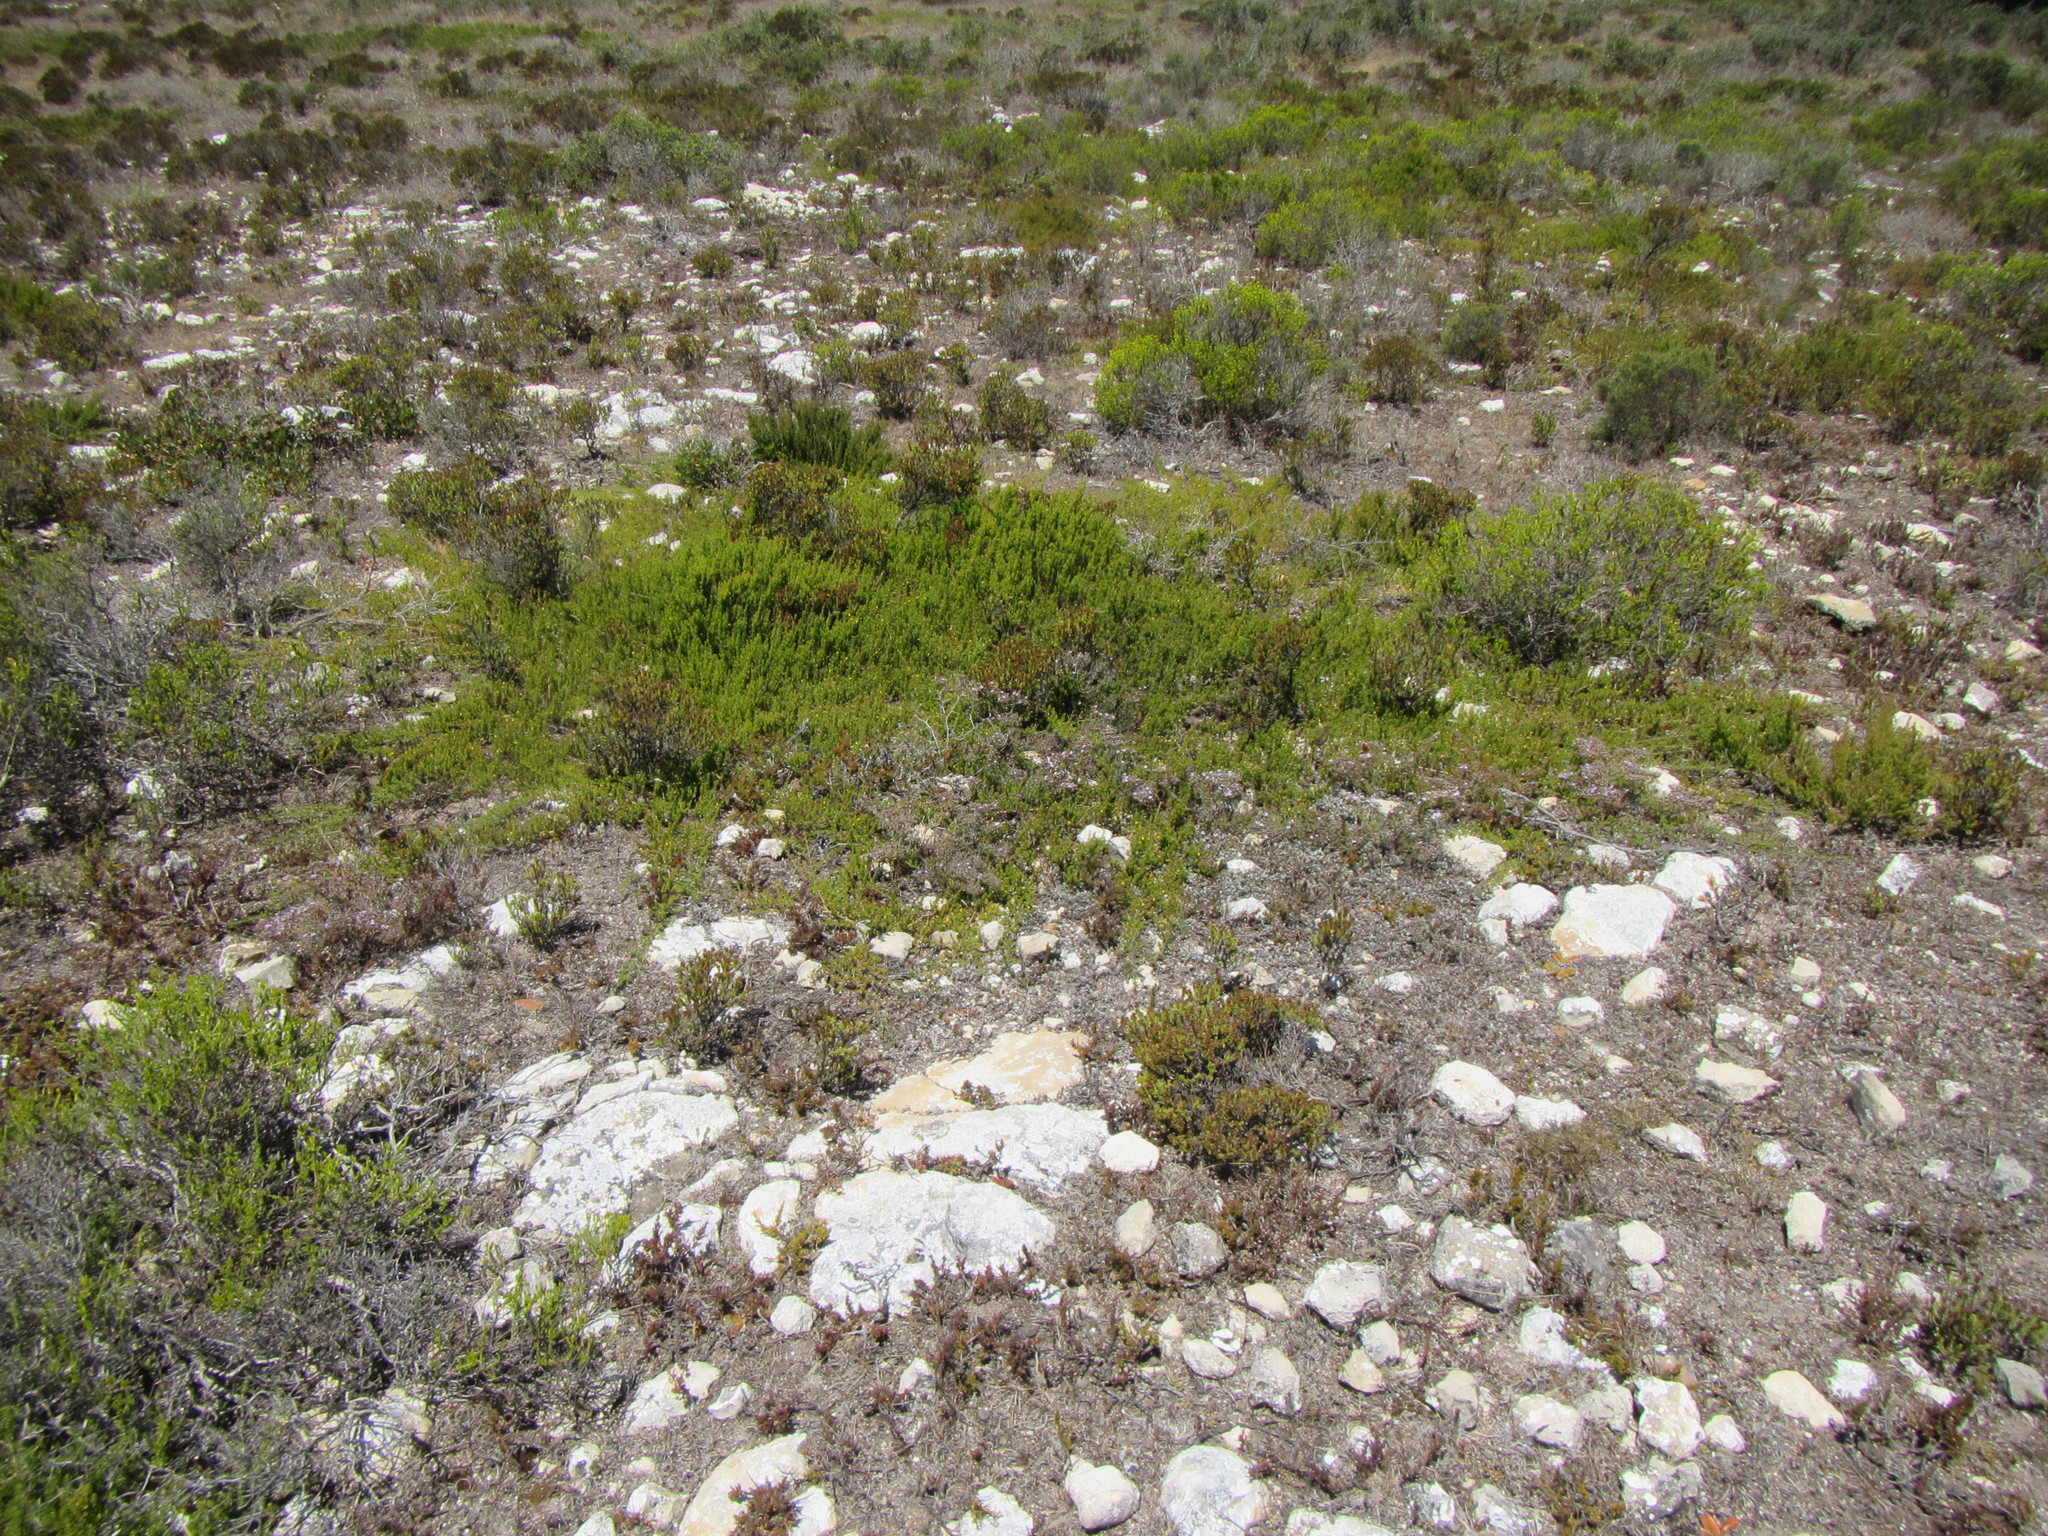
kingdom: Plantae
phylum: Tracheophyta
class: Magnoliopsida
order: Fabales
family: Fabaceae
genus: Aspalathus
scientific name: Aspalathus sanguinea
